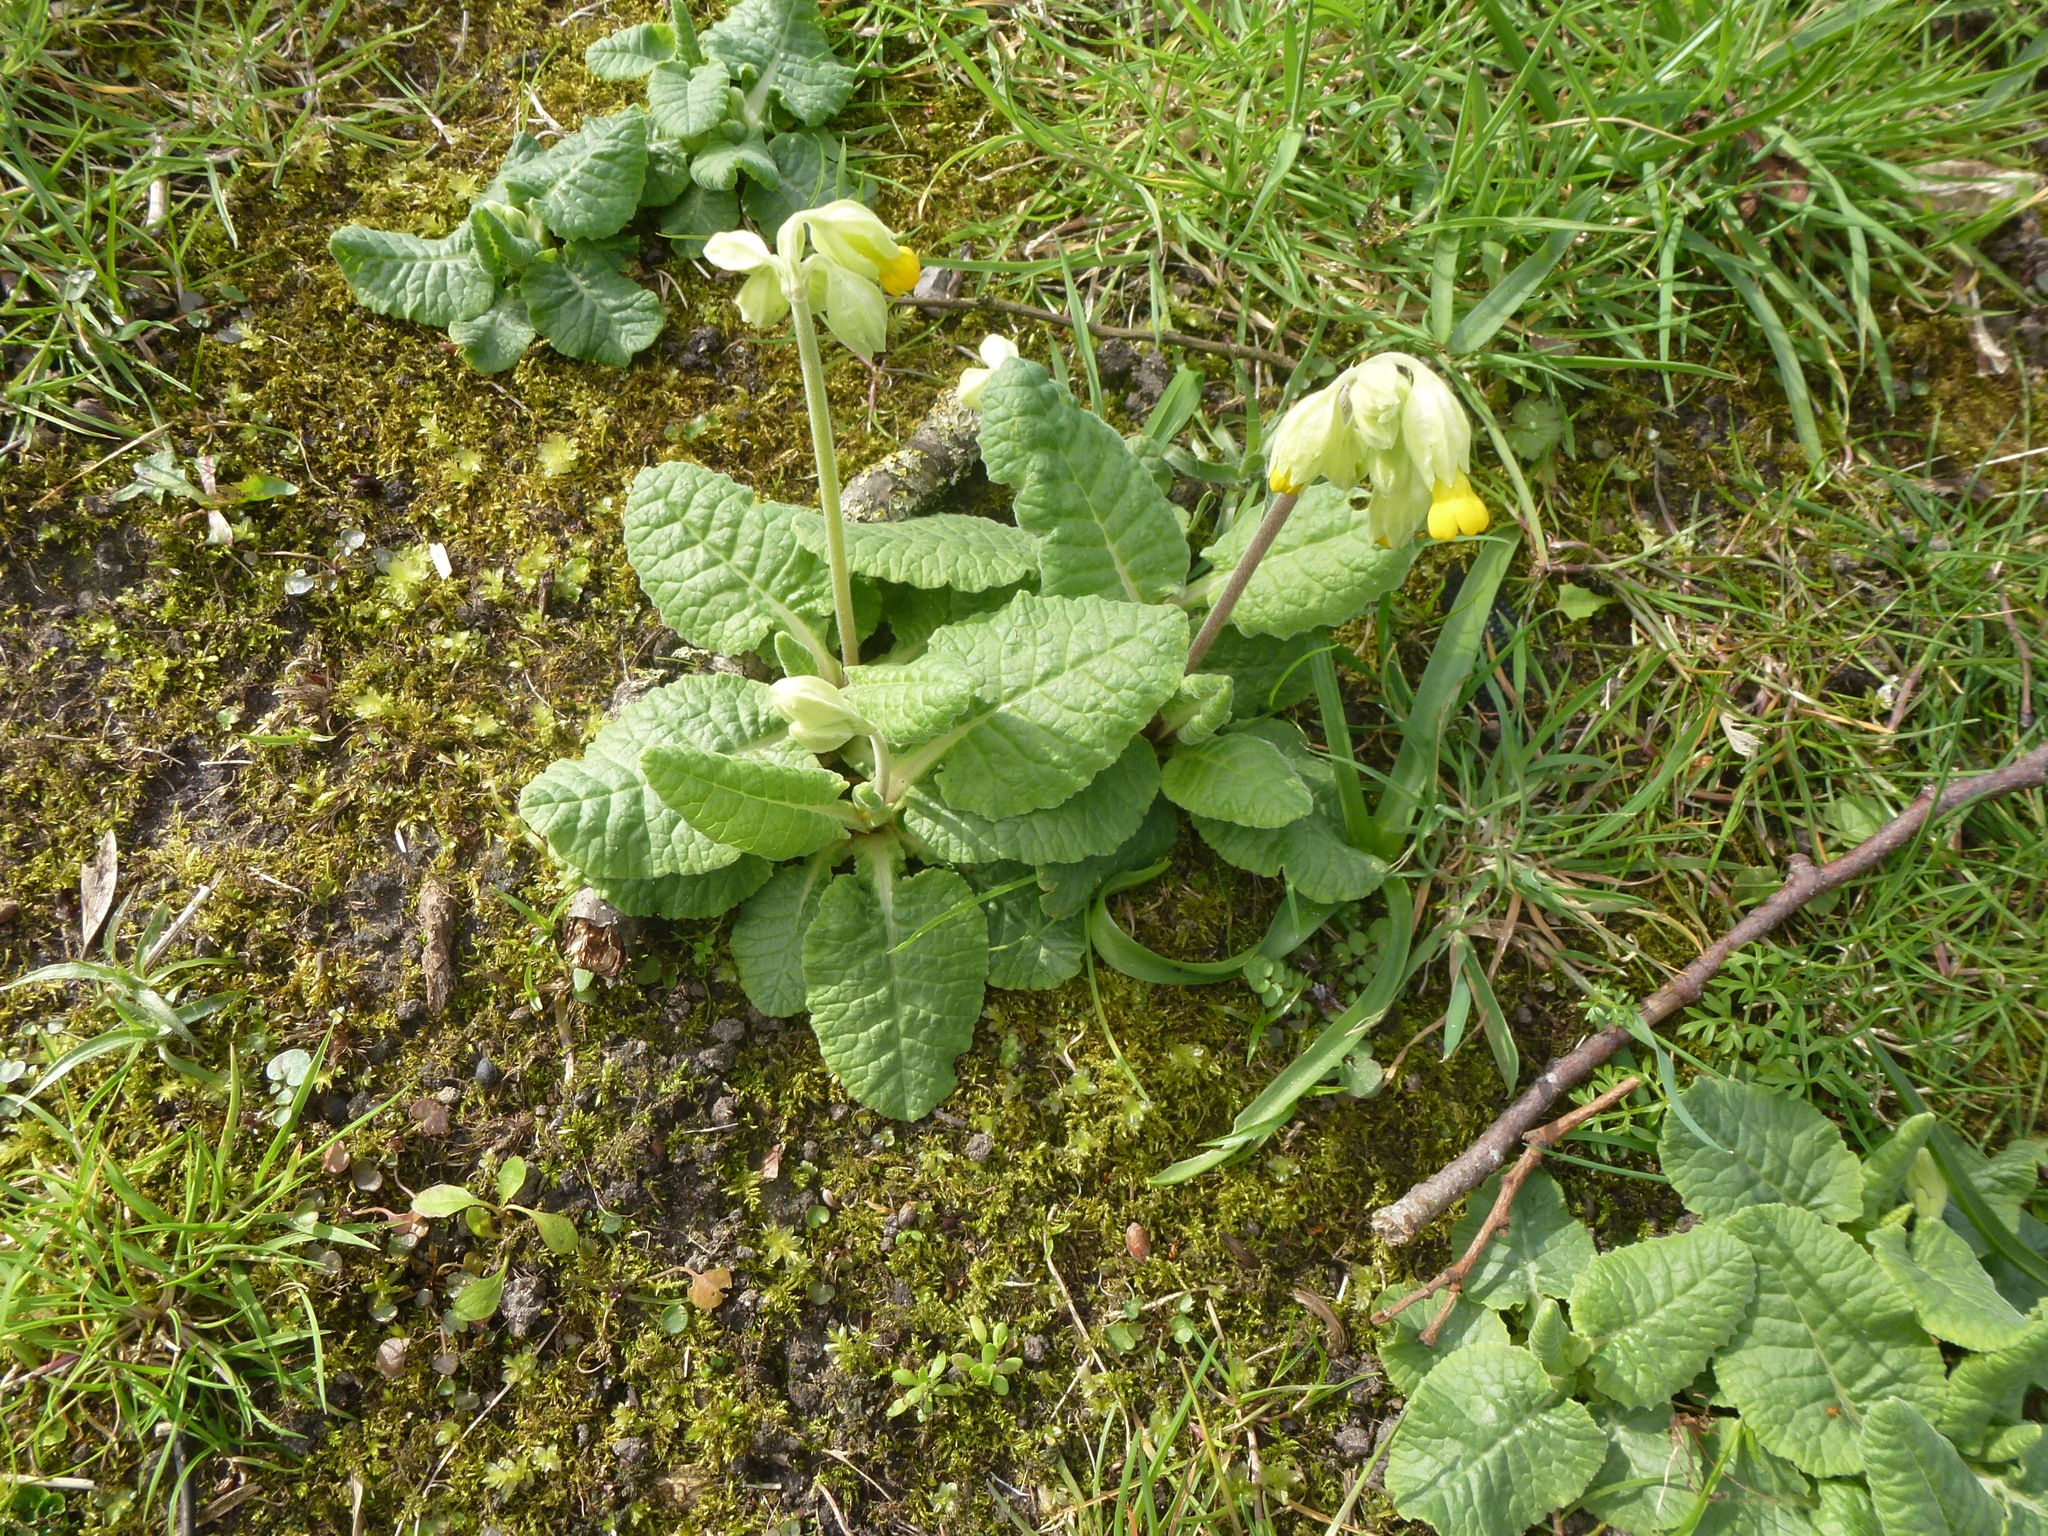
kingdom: Plantae
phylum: Tracheophyta
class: Magnoliopsida
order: Ericales
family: Primulaceae
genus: Primula
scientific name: Primula veris
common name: Cowslip
